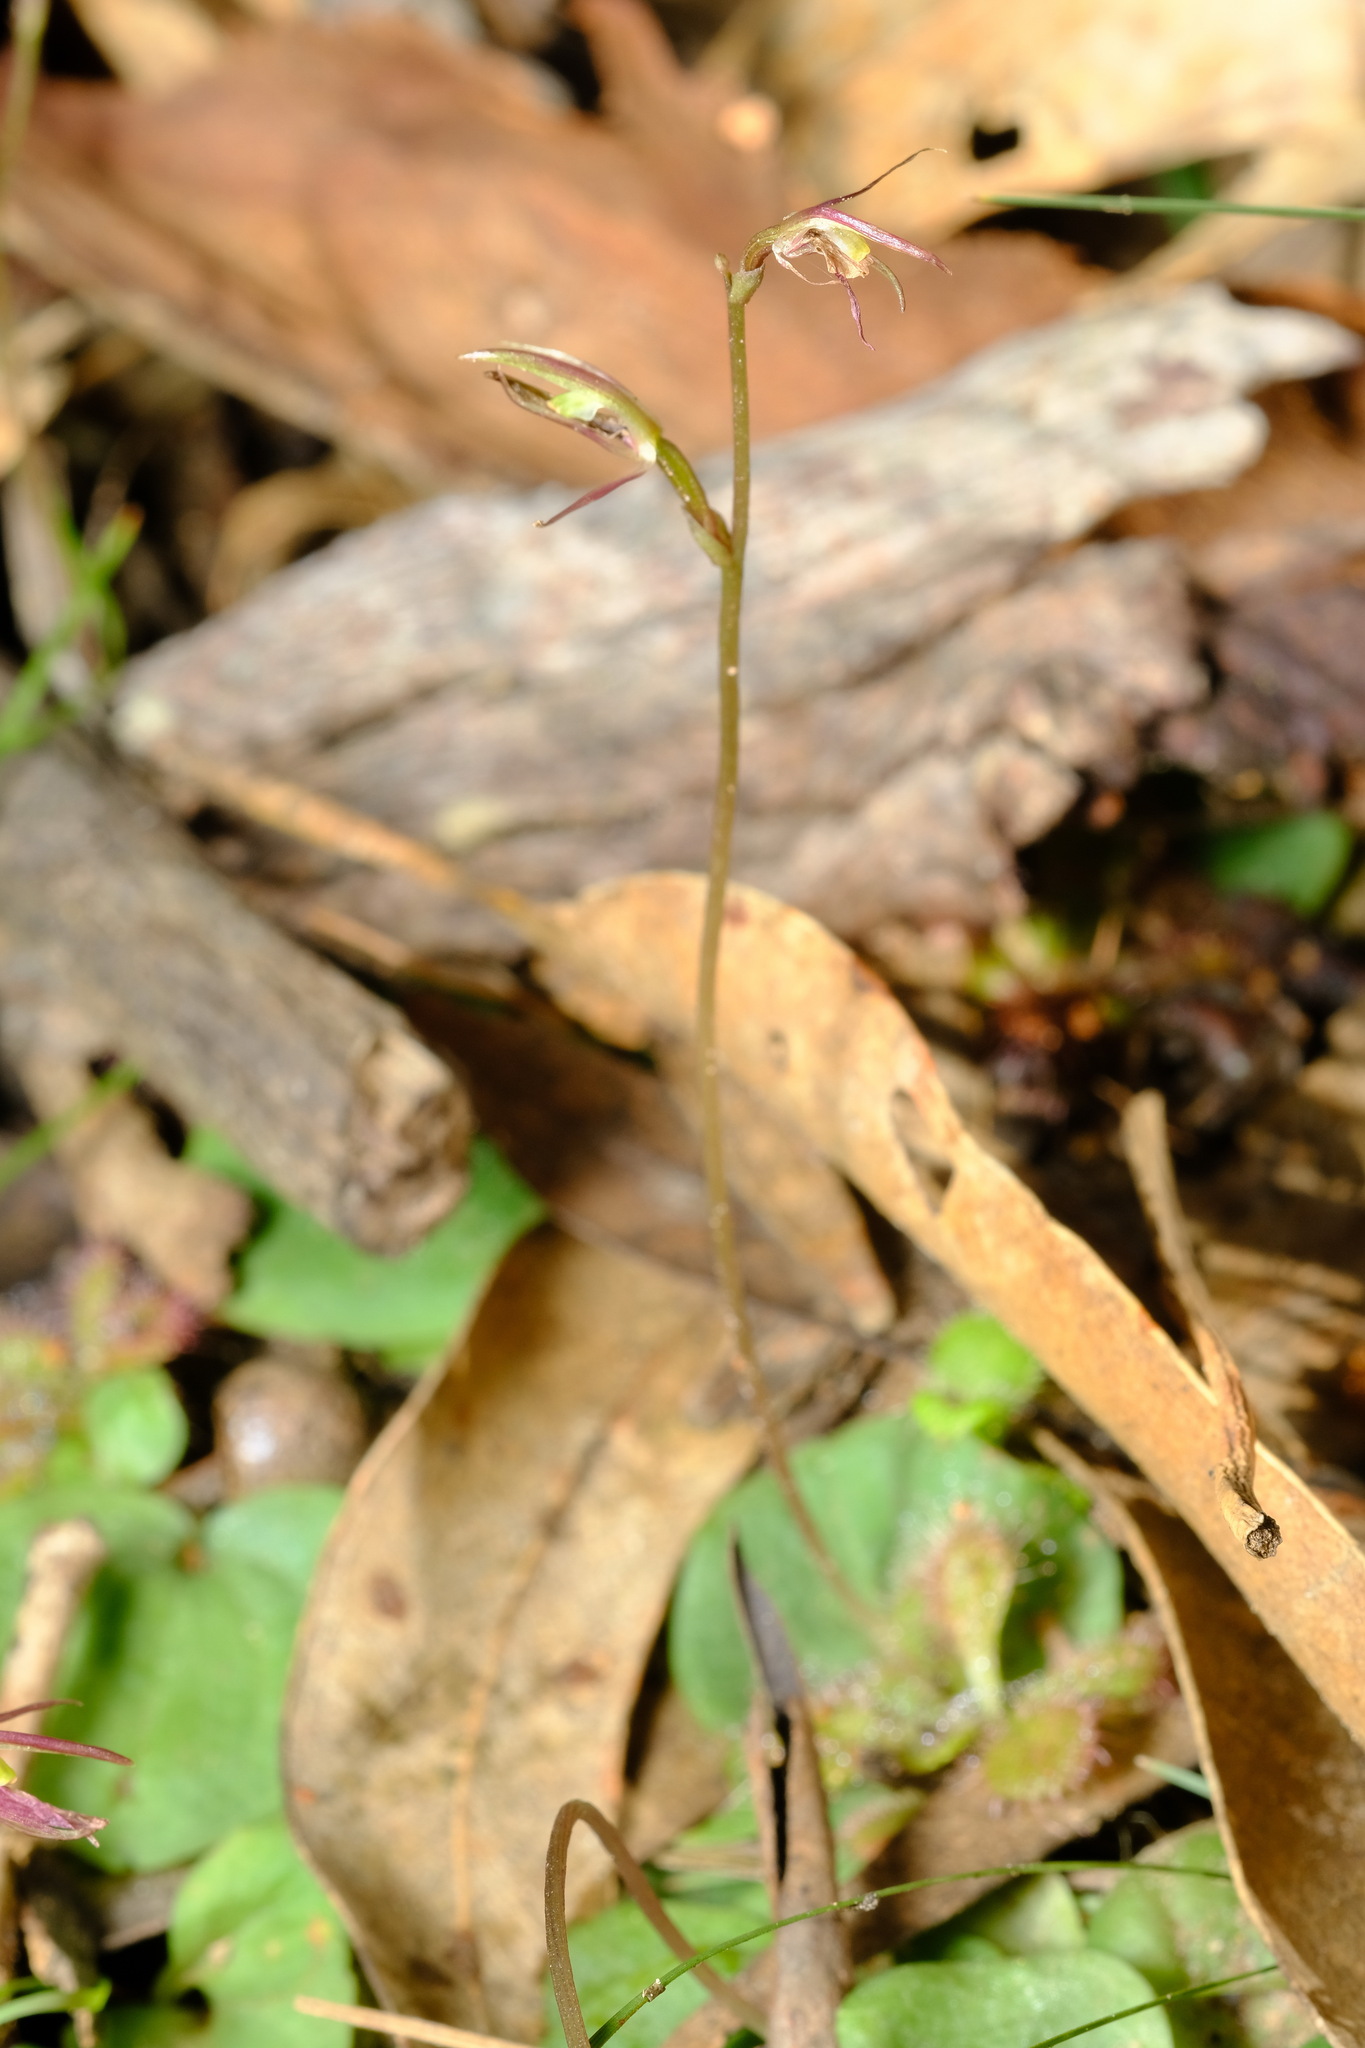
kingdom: Plantae
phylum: Tracheophyta
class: Liliopsida
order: Asparagales
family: Orchidaceae
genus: Cyrtostylis
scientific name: Cyrtostylis reniformis
